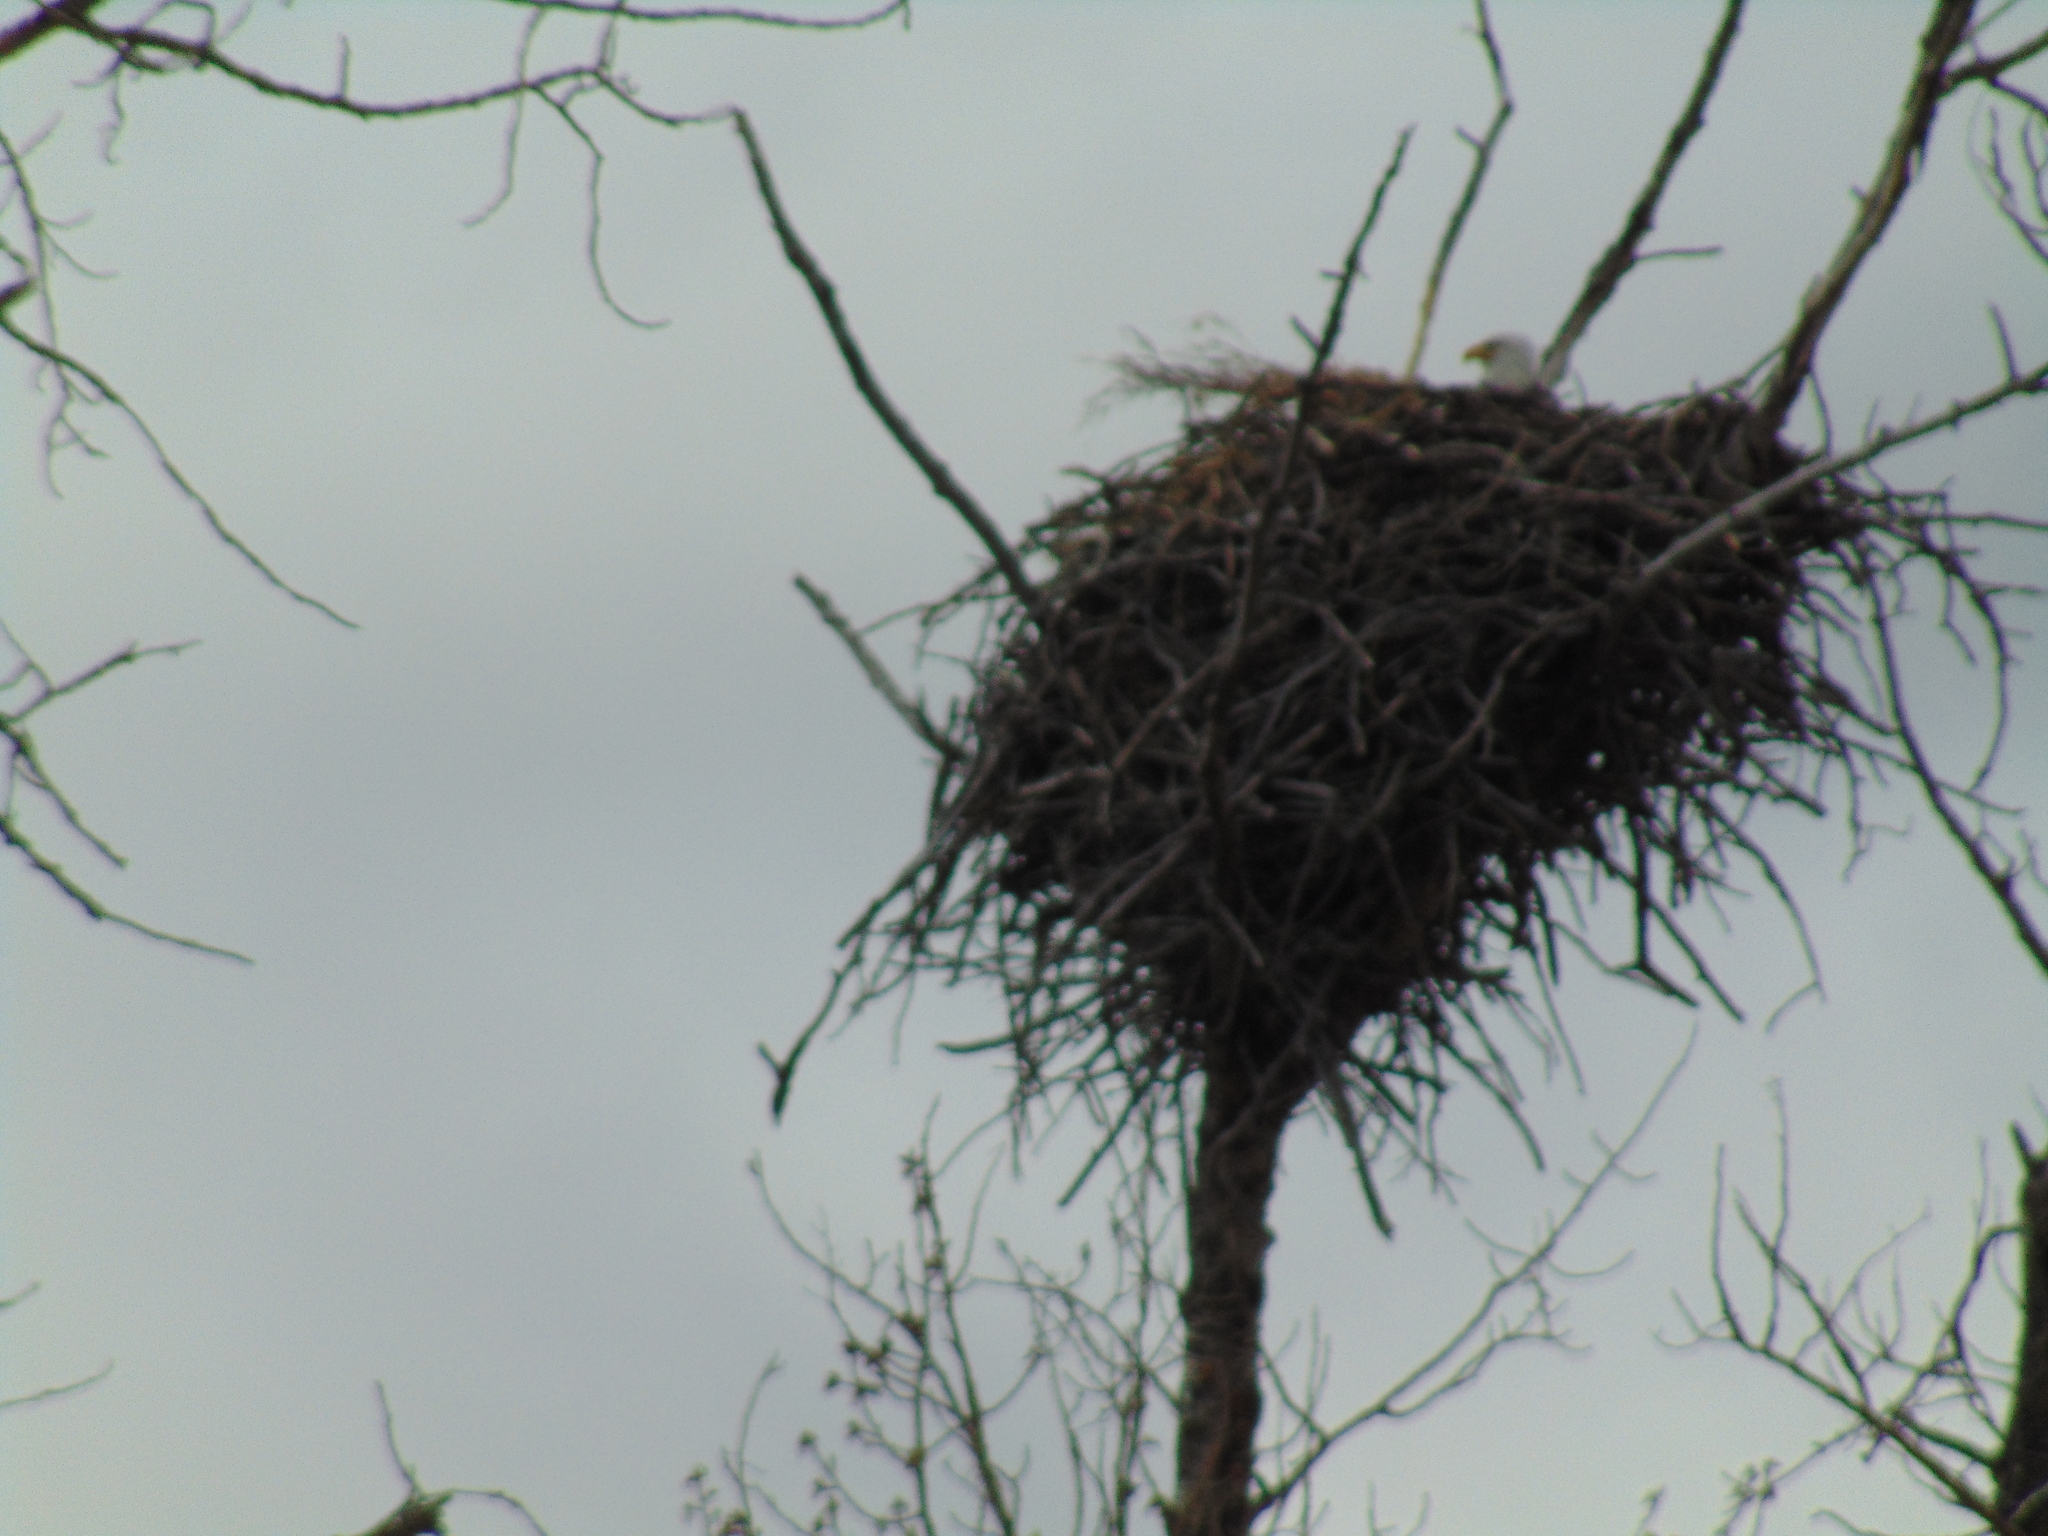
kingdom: Animalia
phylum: Chordata
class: Aves
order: Accipitriformes
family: Accipitridae
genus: Haliaeetus
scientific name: Haliaeetus leucocephalus
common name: Bald eagle
